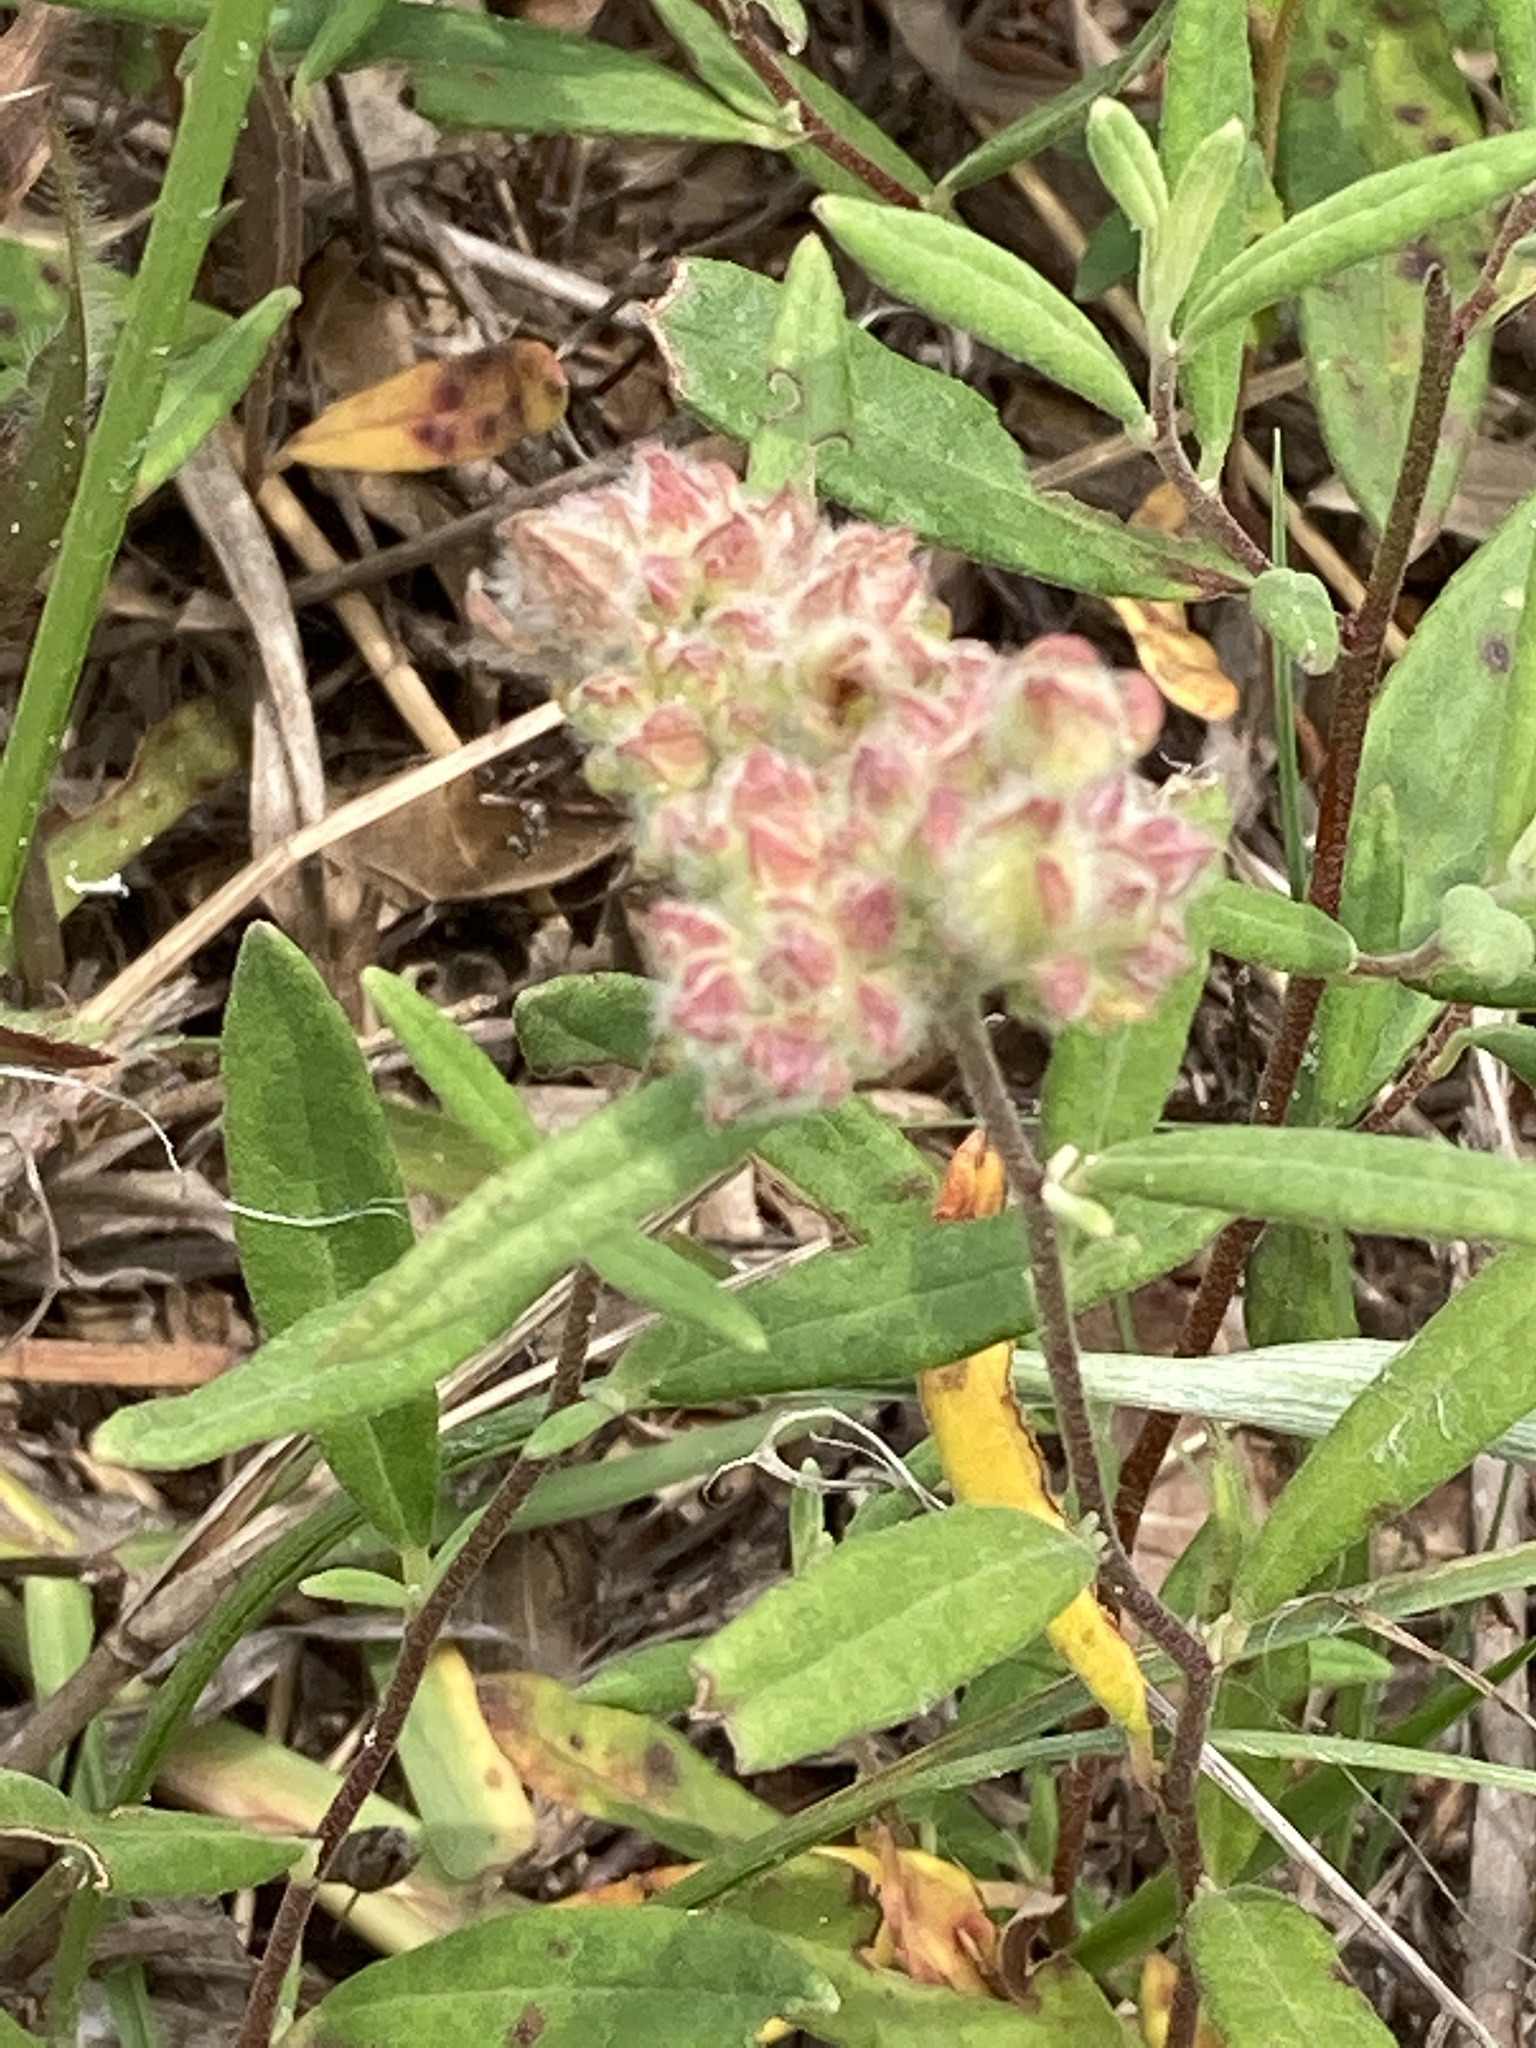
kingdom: Plantae
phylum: Tracheophyta
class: Magnoliopsida
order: Malvales
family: Cistaceae
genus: Crocanthemum
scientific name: Crocanthemum corymbosum
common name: Pinebarren sun-rose
